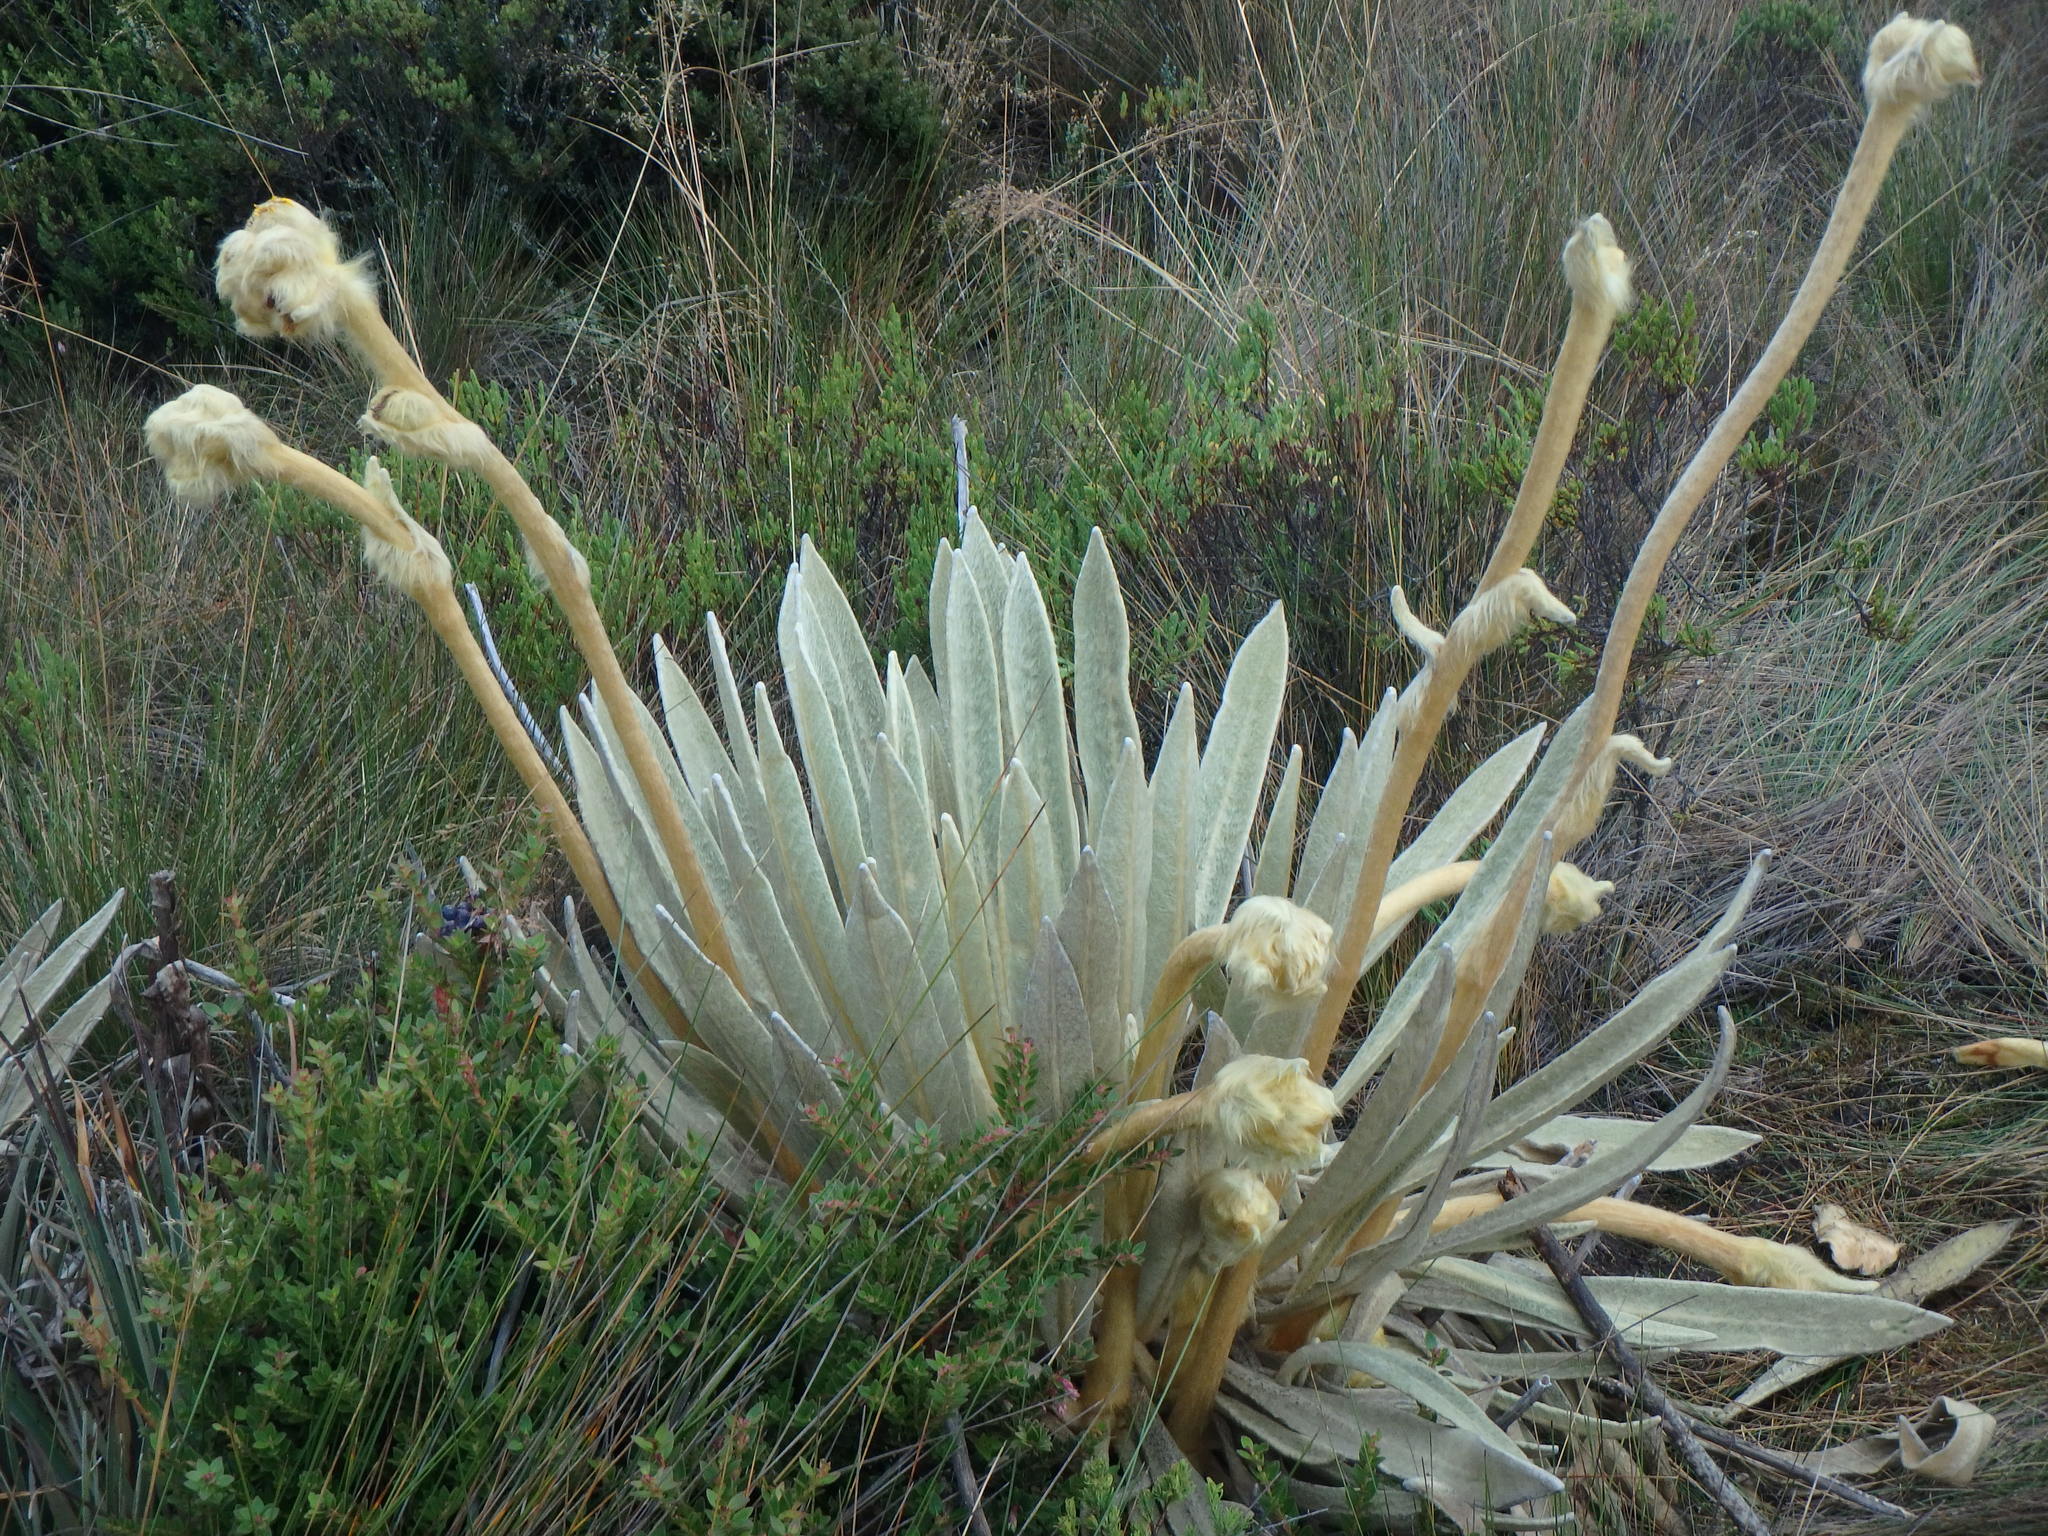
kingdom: Plantae
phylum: Tracheophyta
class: Magnoliopsida
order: Asterales
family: Asteraceae
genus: Espeletia
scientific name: Espeletia congestiflora
